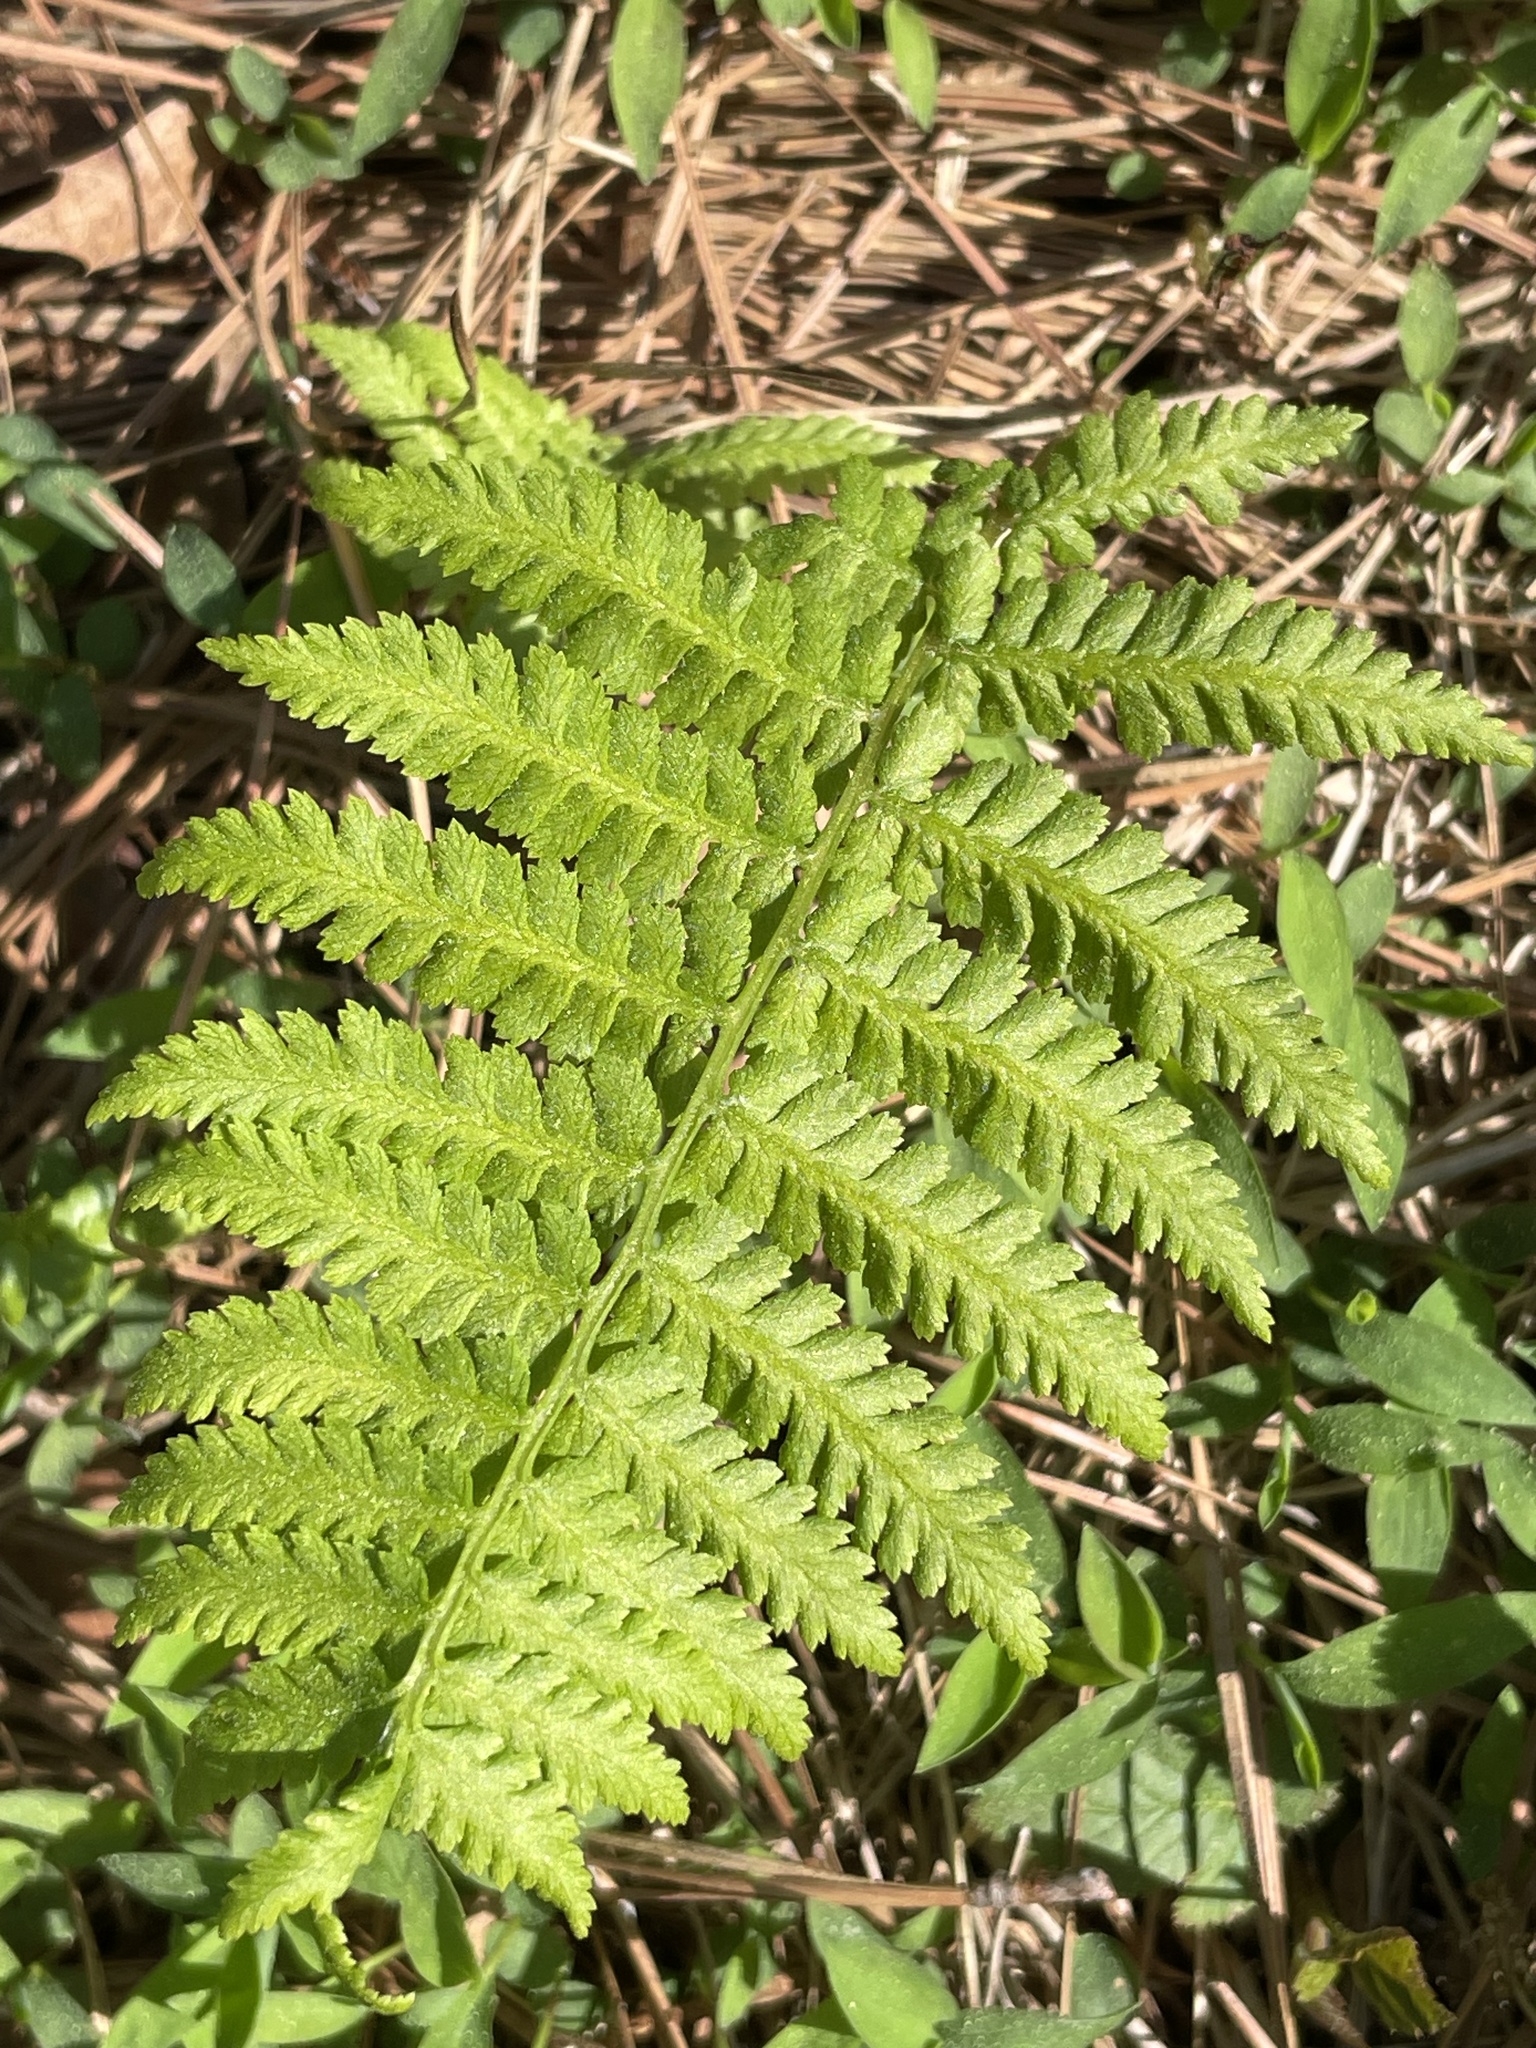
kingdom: Plantae
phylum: Tracheophyta
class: Polypodiopsida
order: Polypodiales
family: Athyriaceae
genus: Athyrium
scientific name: Athyrium asplenioides
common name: Southern lady fern
